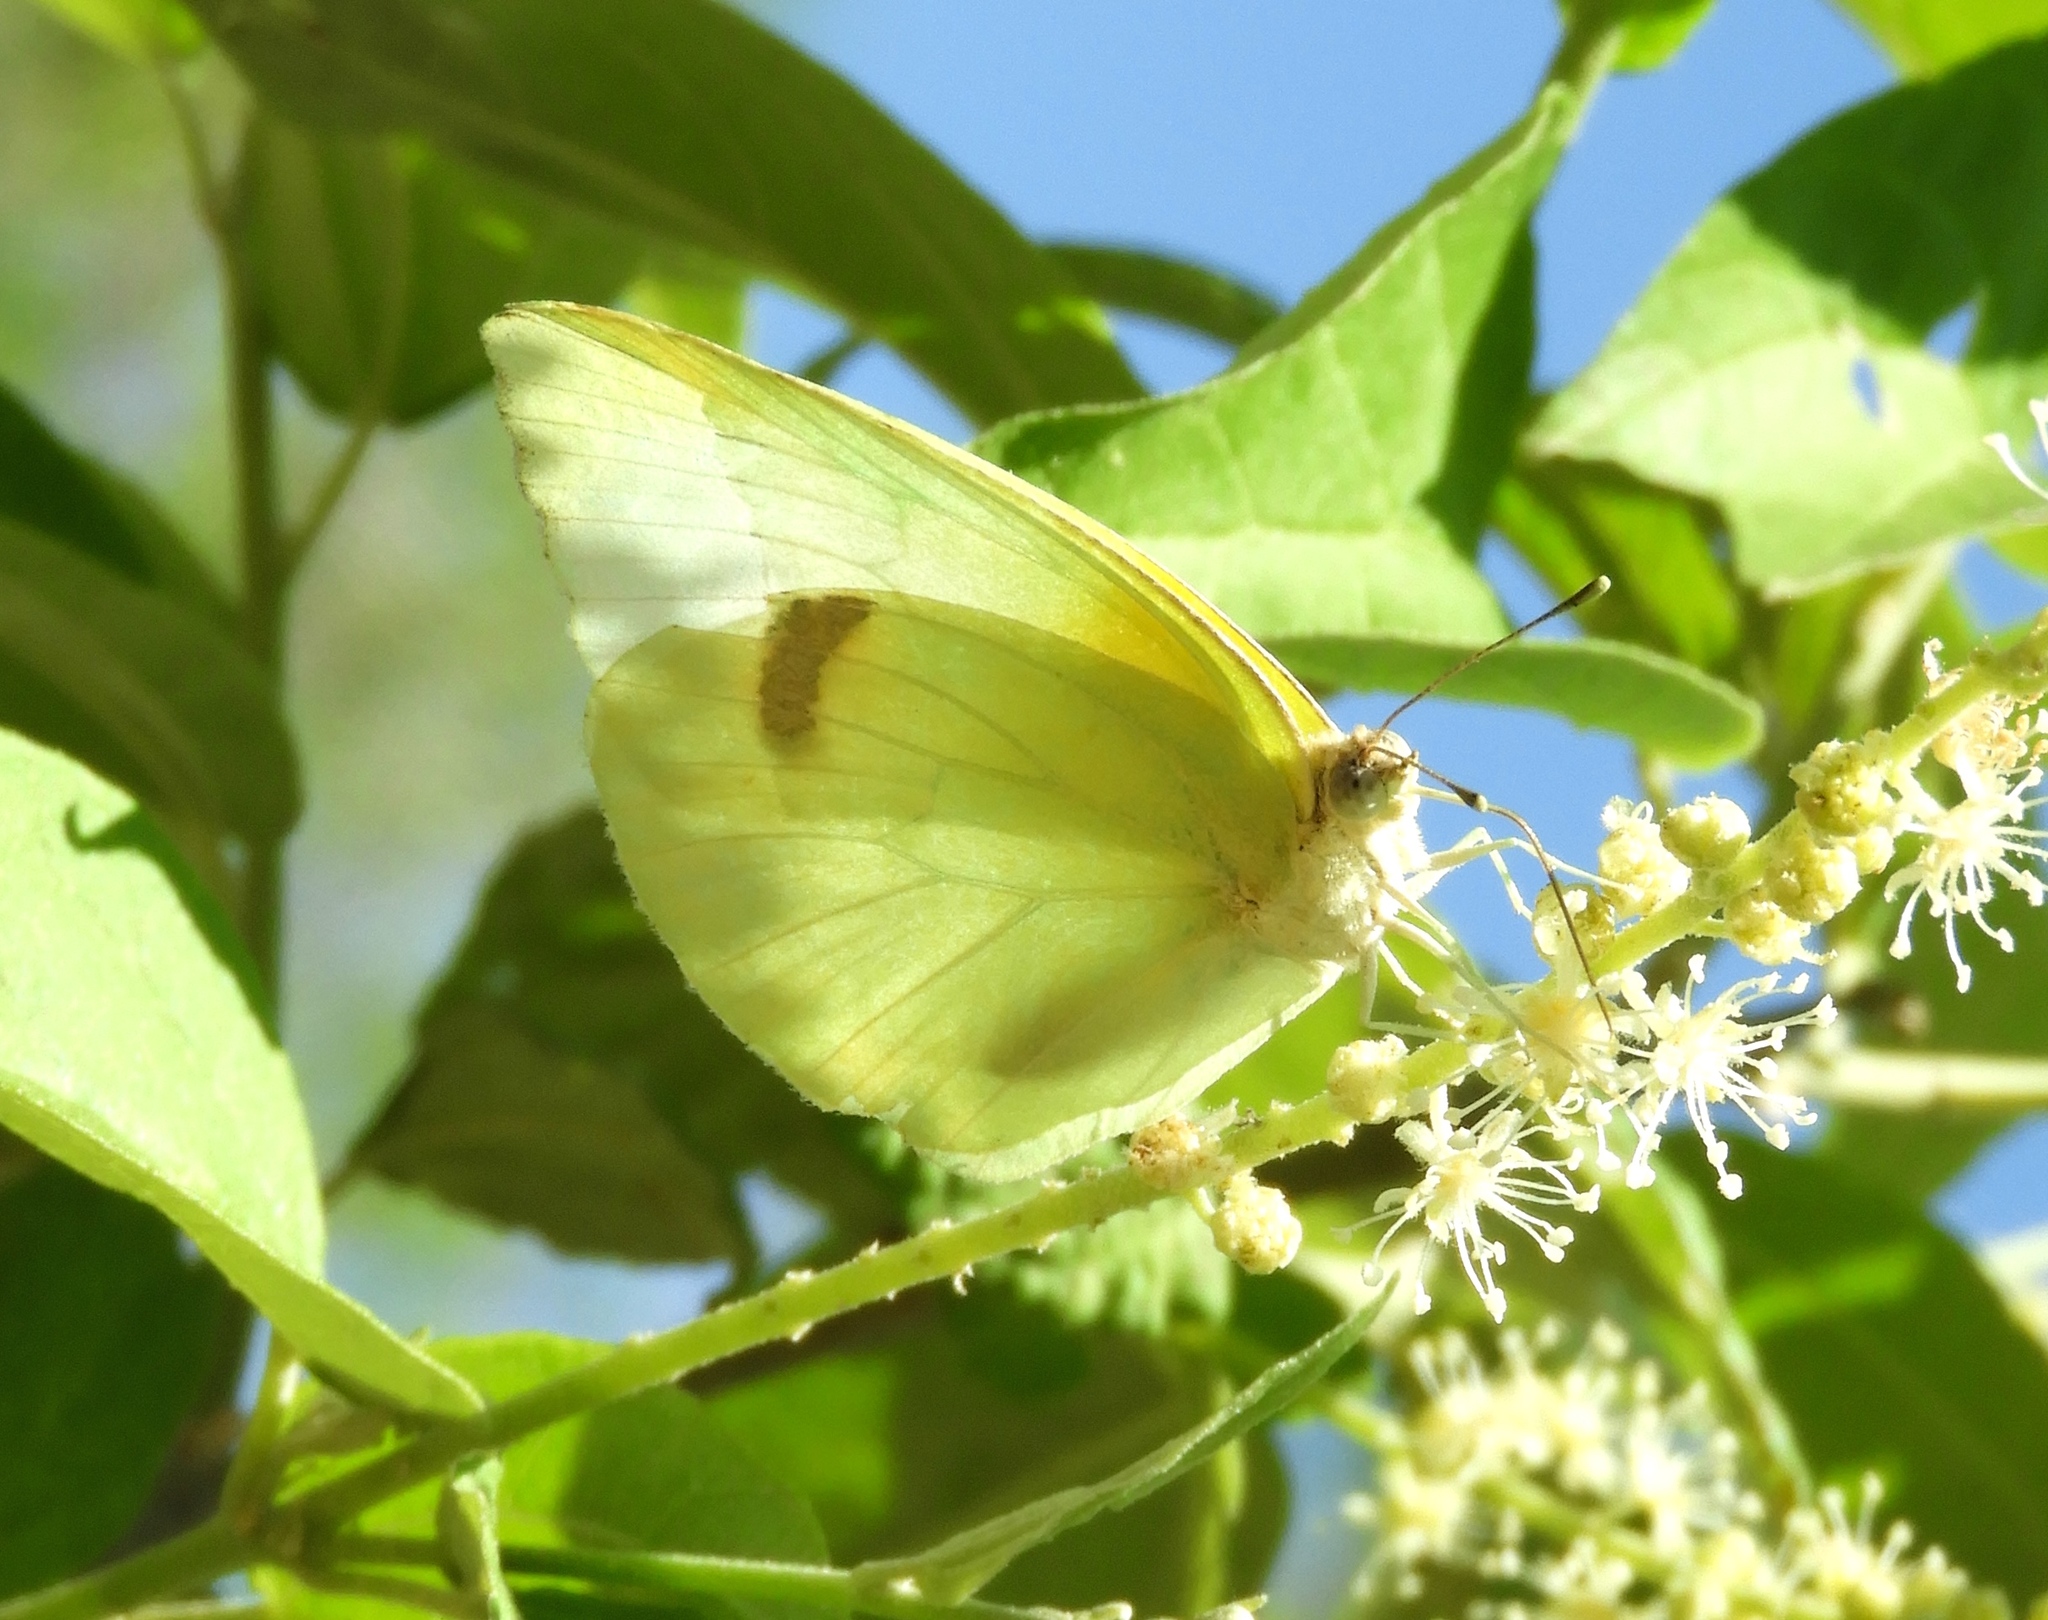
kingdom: Animalia
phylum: Arthropoda
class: Insecta
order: Lepidoptera
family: Pieridae
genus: Kricogonia
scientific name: Kricogonia lyside
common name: Guayacan sulphur,
